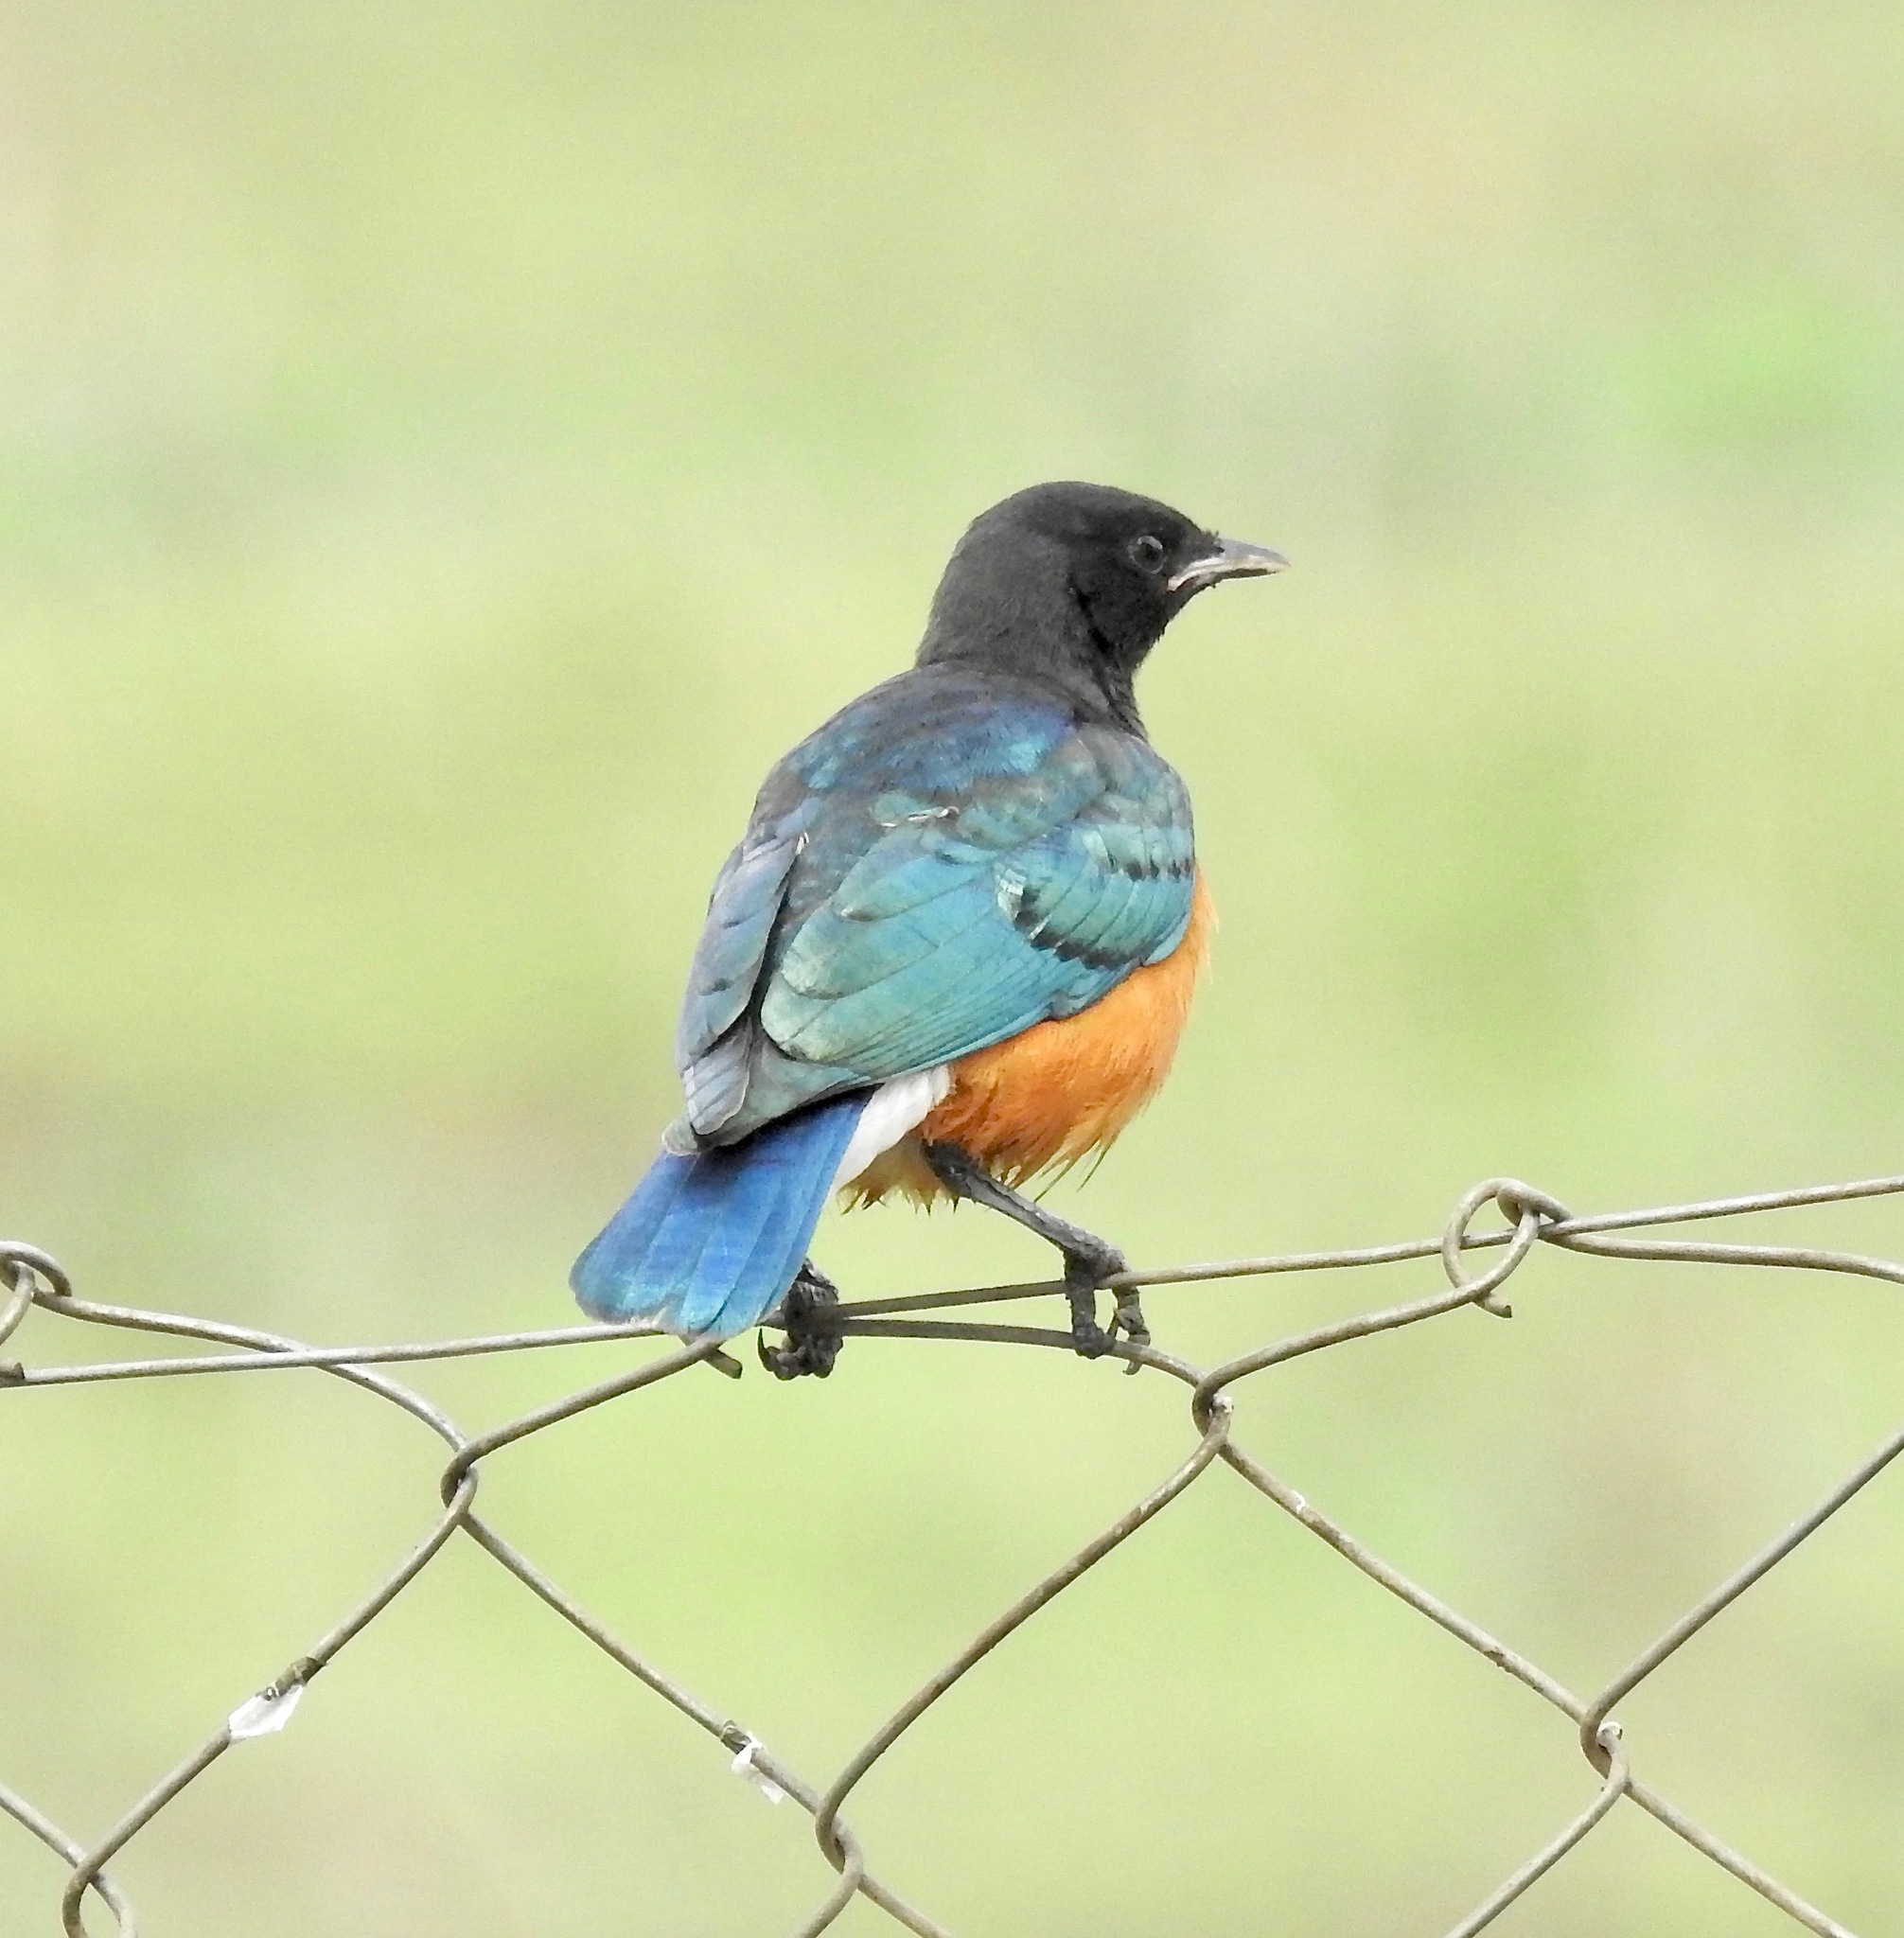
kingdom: Animalia
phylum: Chordata
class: Aves
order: Passeriformes
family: Sturnidae
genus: Lamprotornis
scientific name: Lamprotornis superbus
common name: Superb starling
